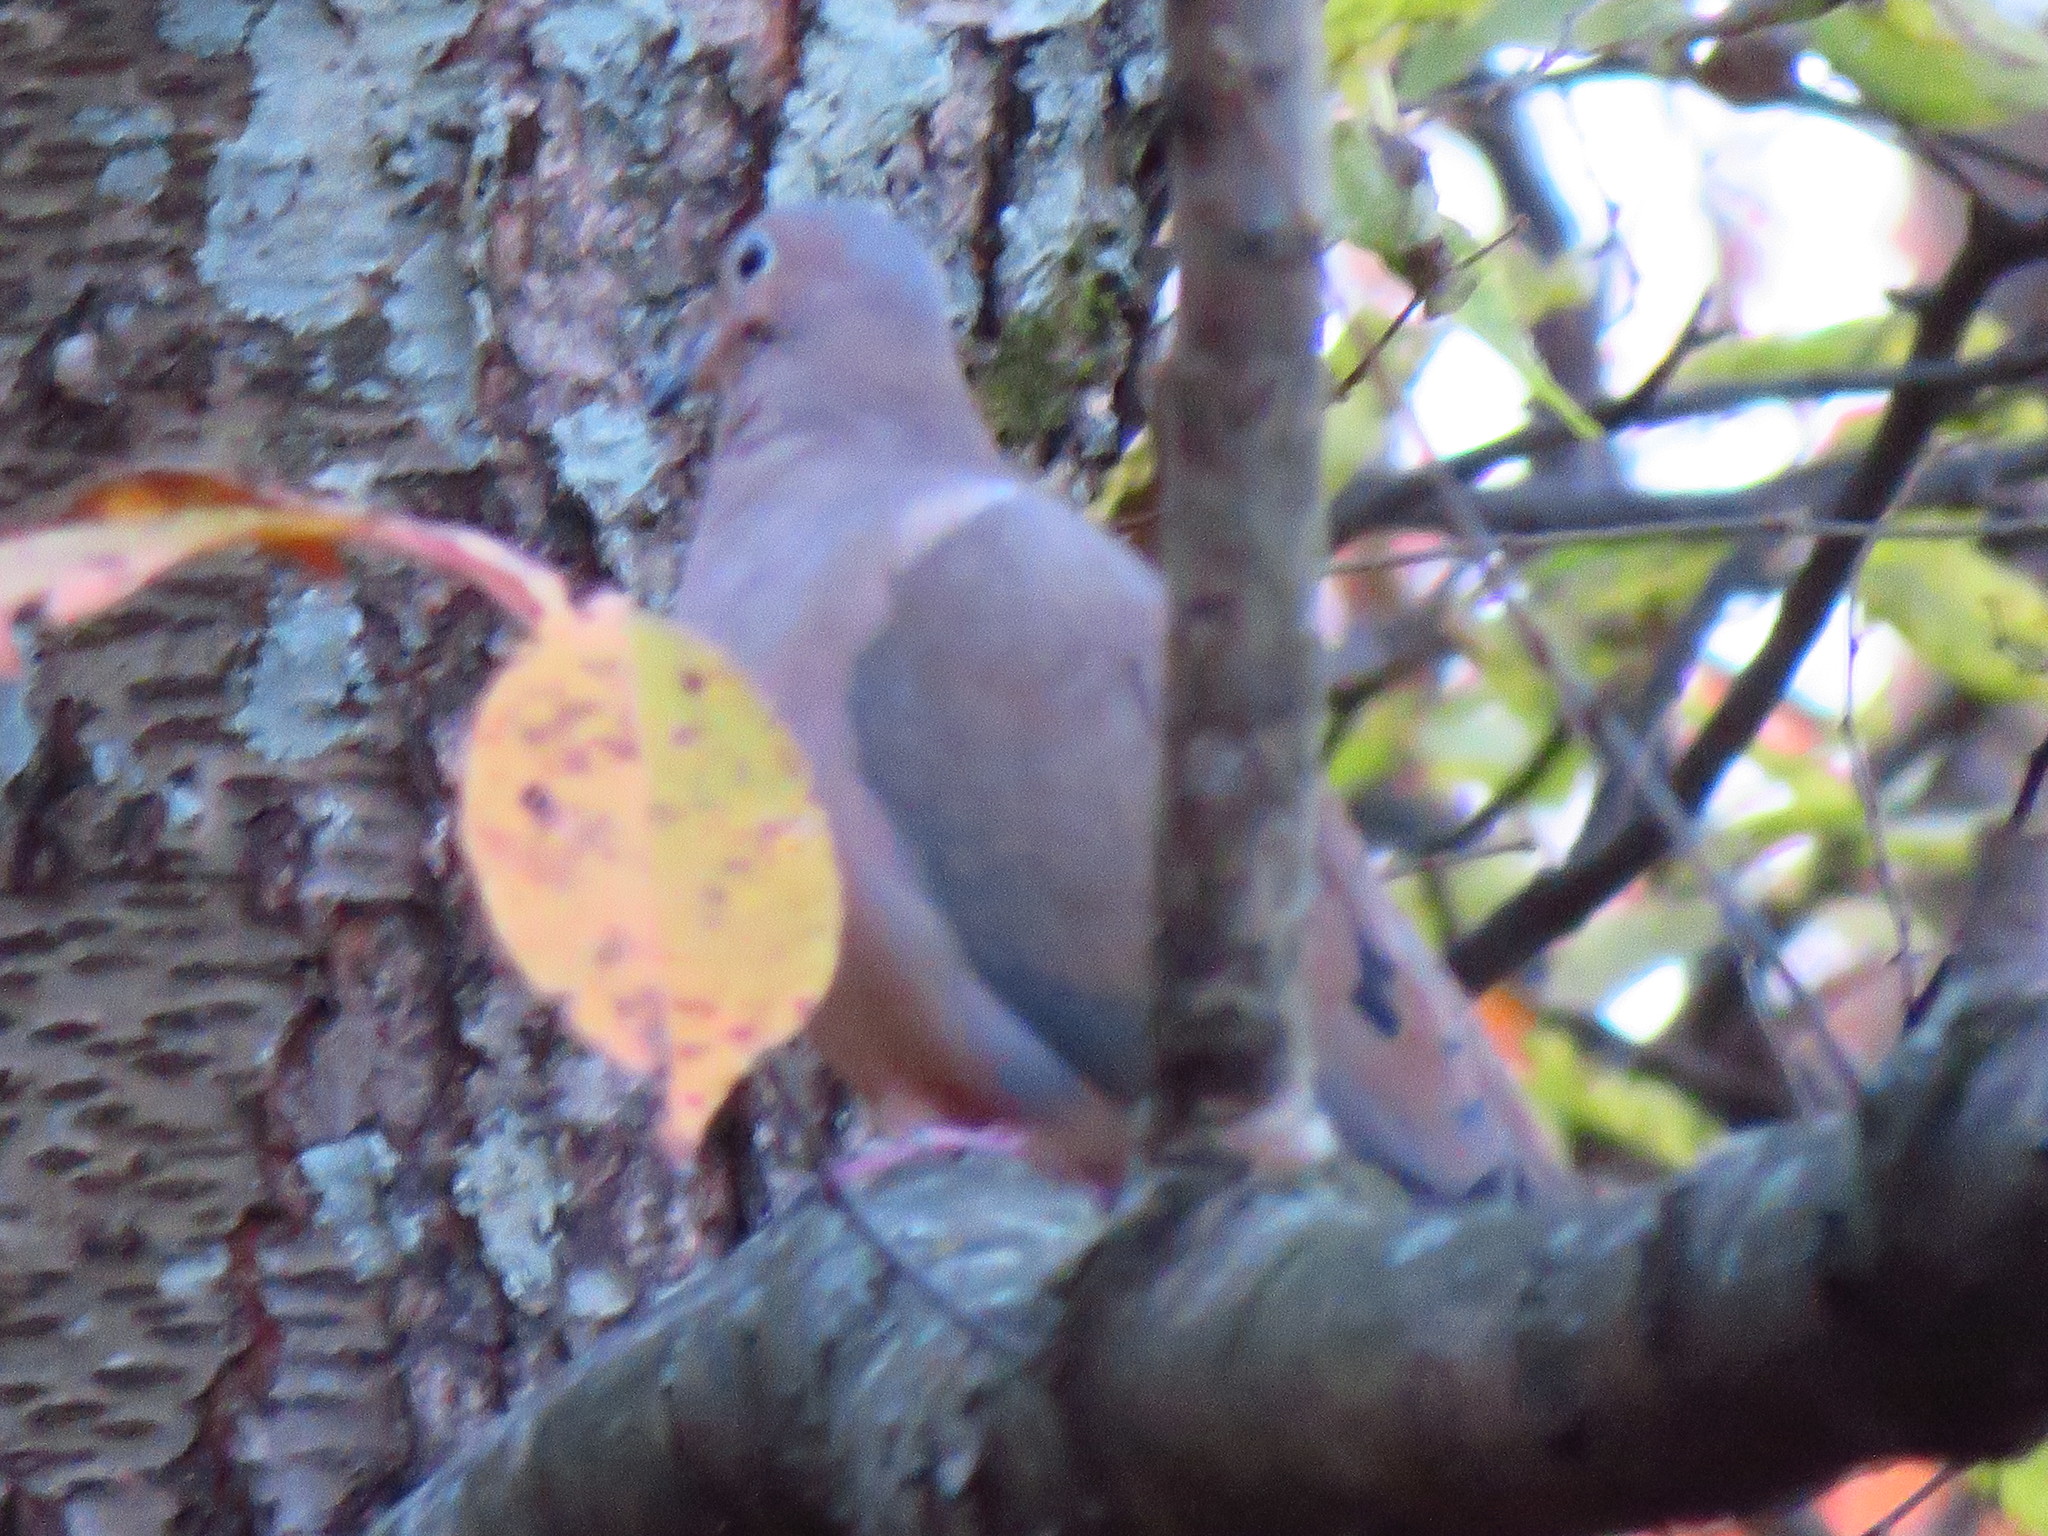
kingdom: Animalia
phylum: Chordata
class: Aves
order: Columbiformes
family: Columbidae
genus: Zenaida
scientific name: Zenaida macroura
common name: Mourning dove
